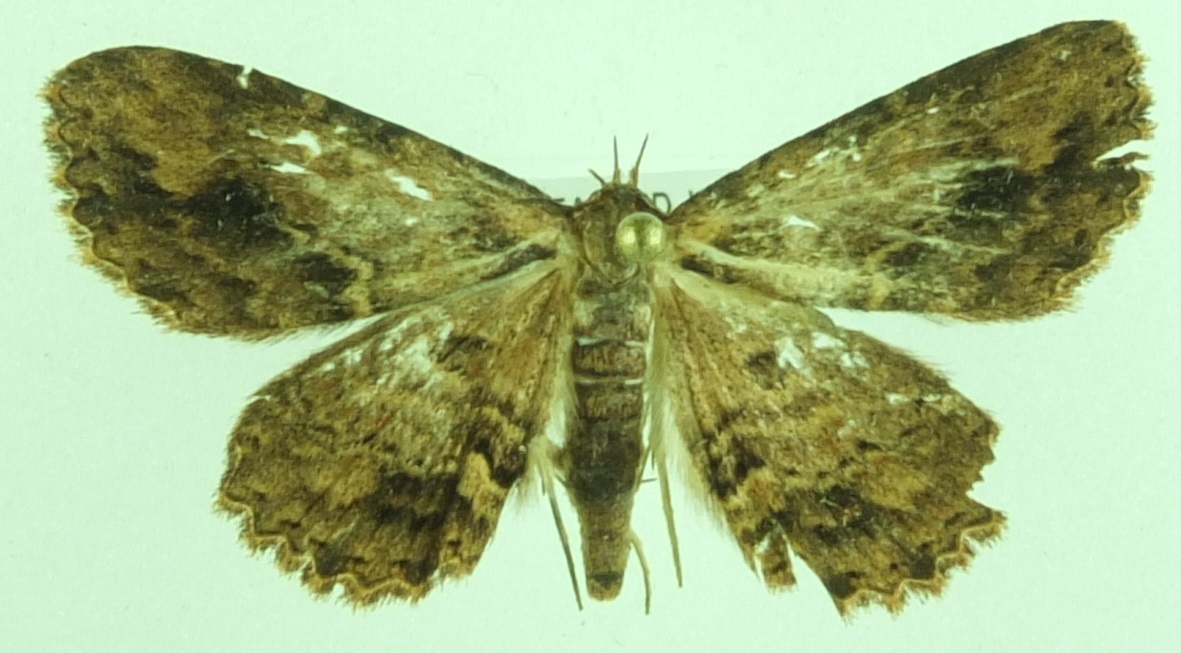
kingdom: Animalia
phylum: Arthropoda
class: Insecta
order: Lepidoptera
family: Erebidae
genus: Artigisa
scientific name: Artigisa melanephele
